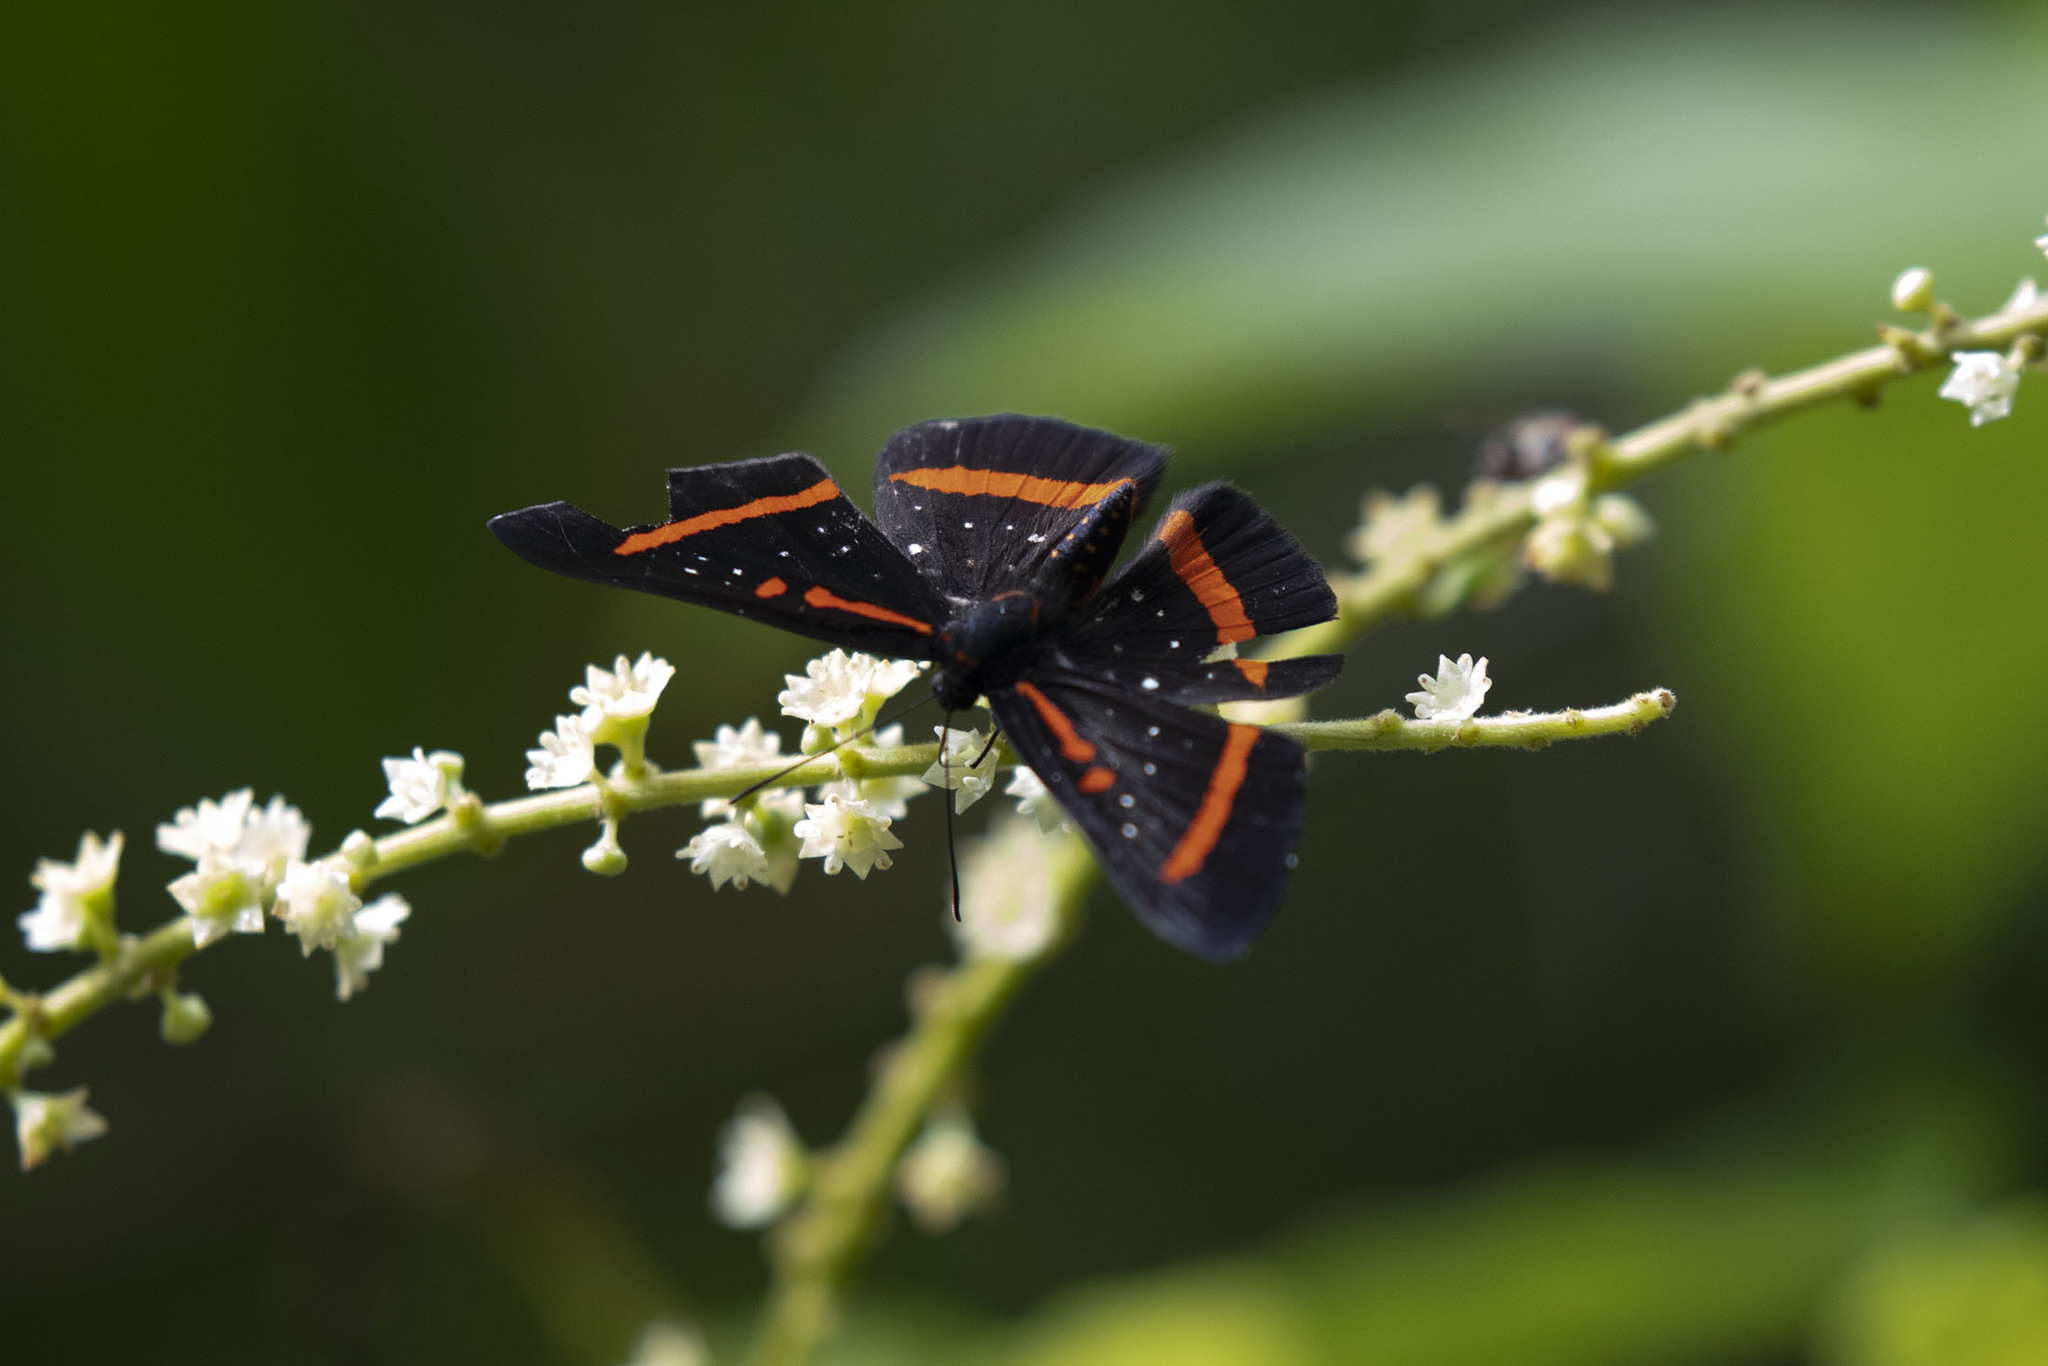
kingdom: Animalia
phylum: Arthropoda
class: Insecta
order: Lepidoptera
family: Riodinidae
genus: Amarynthis
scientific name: Amarynthis meneria
